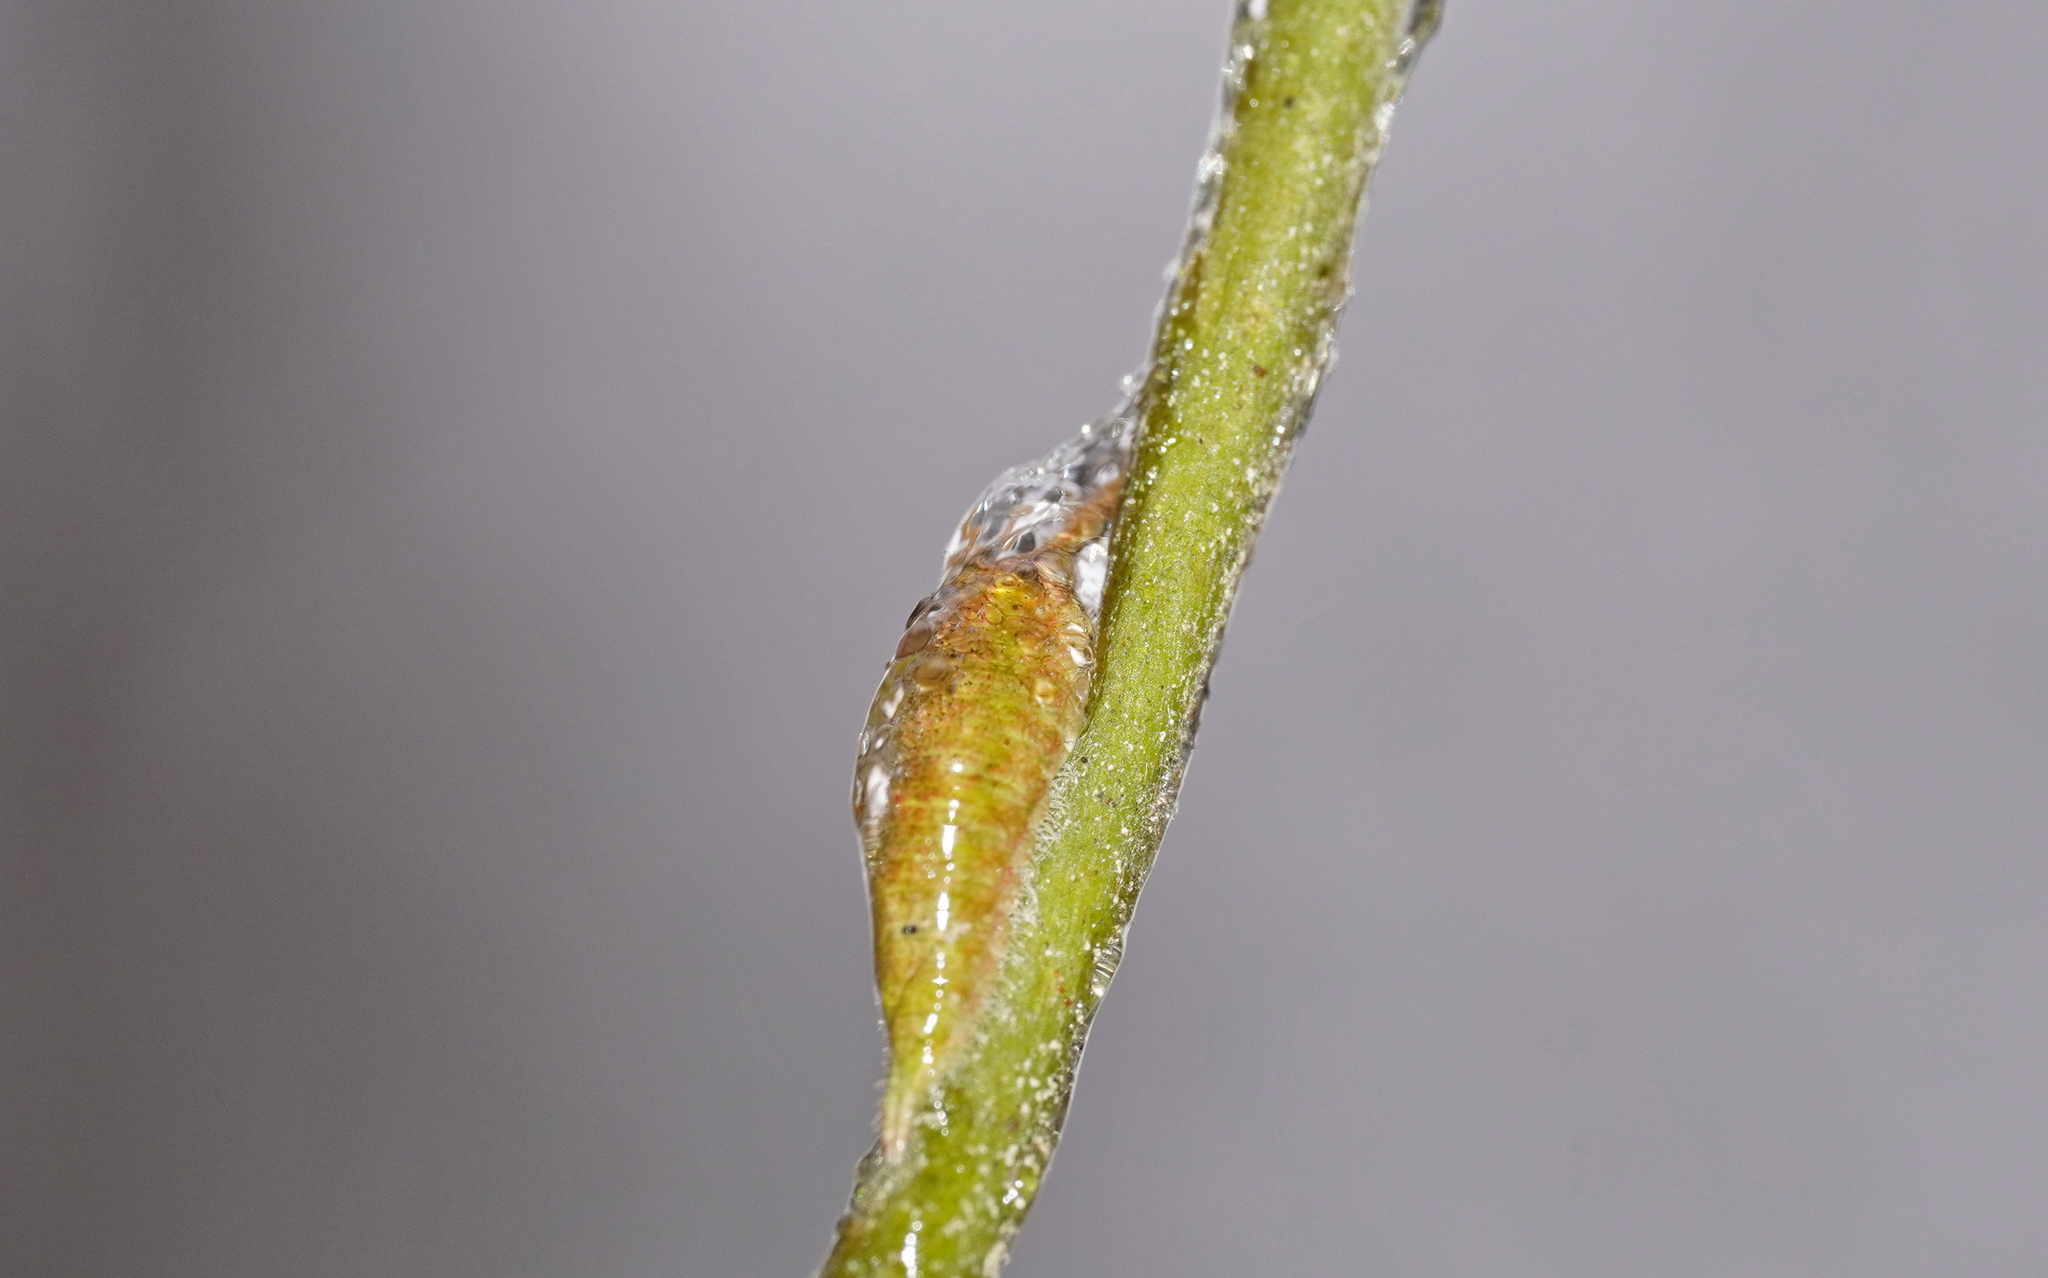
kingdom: Animalia
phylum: Arthropoda
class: Insecta
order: Lepidoptera
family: Nymphalidae
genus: Apatura
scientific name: Apatura iris
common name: Purple emperor
